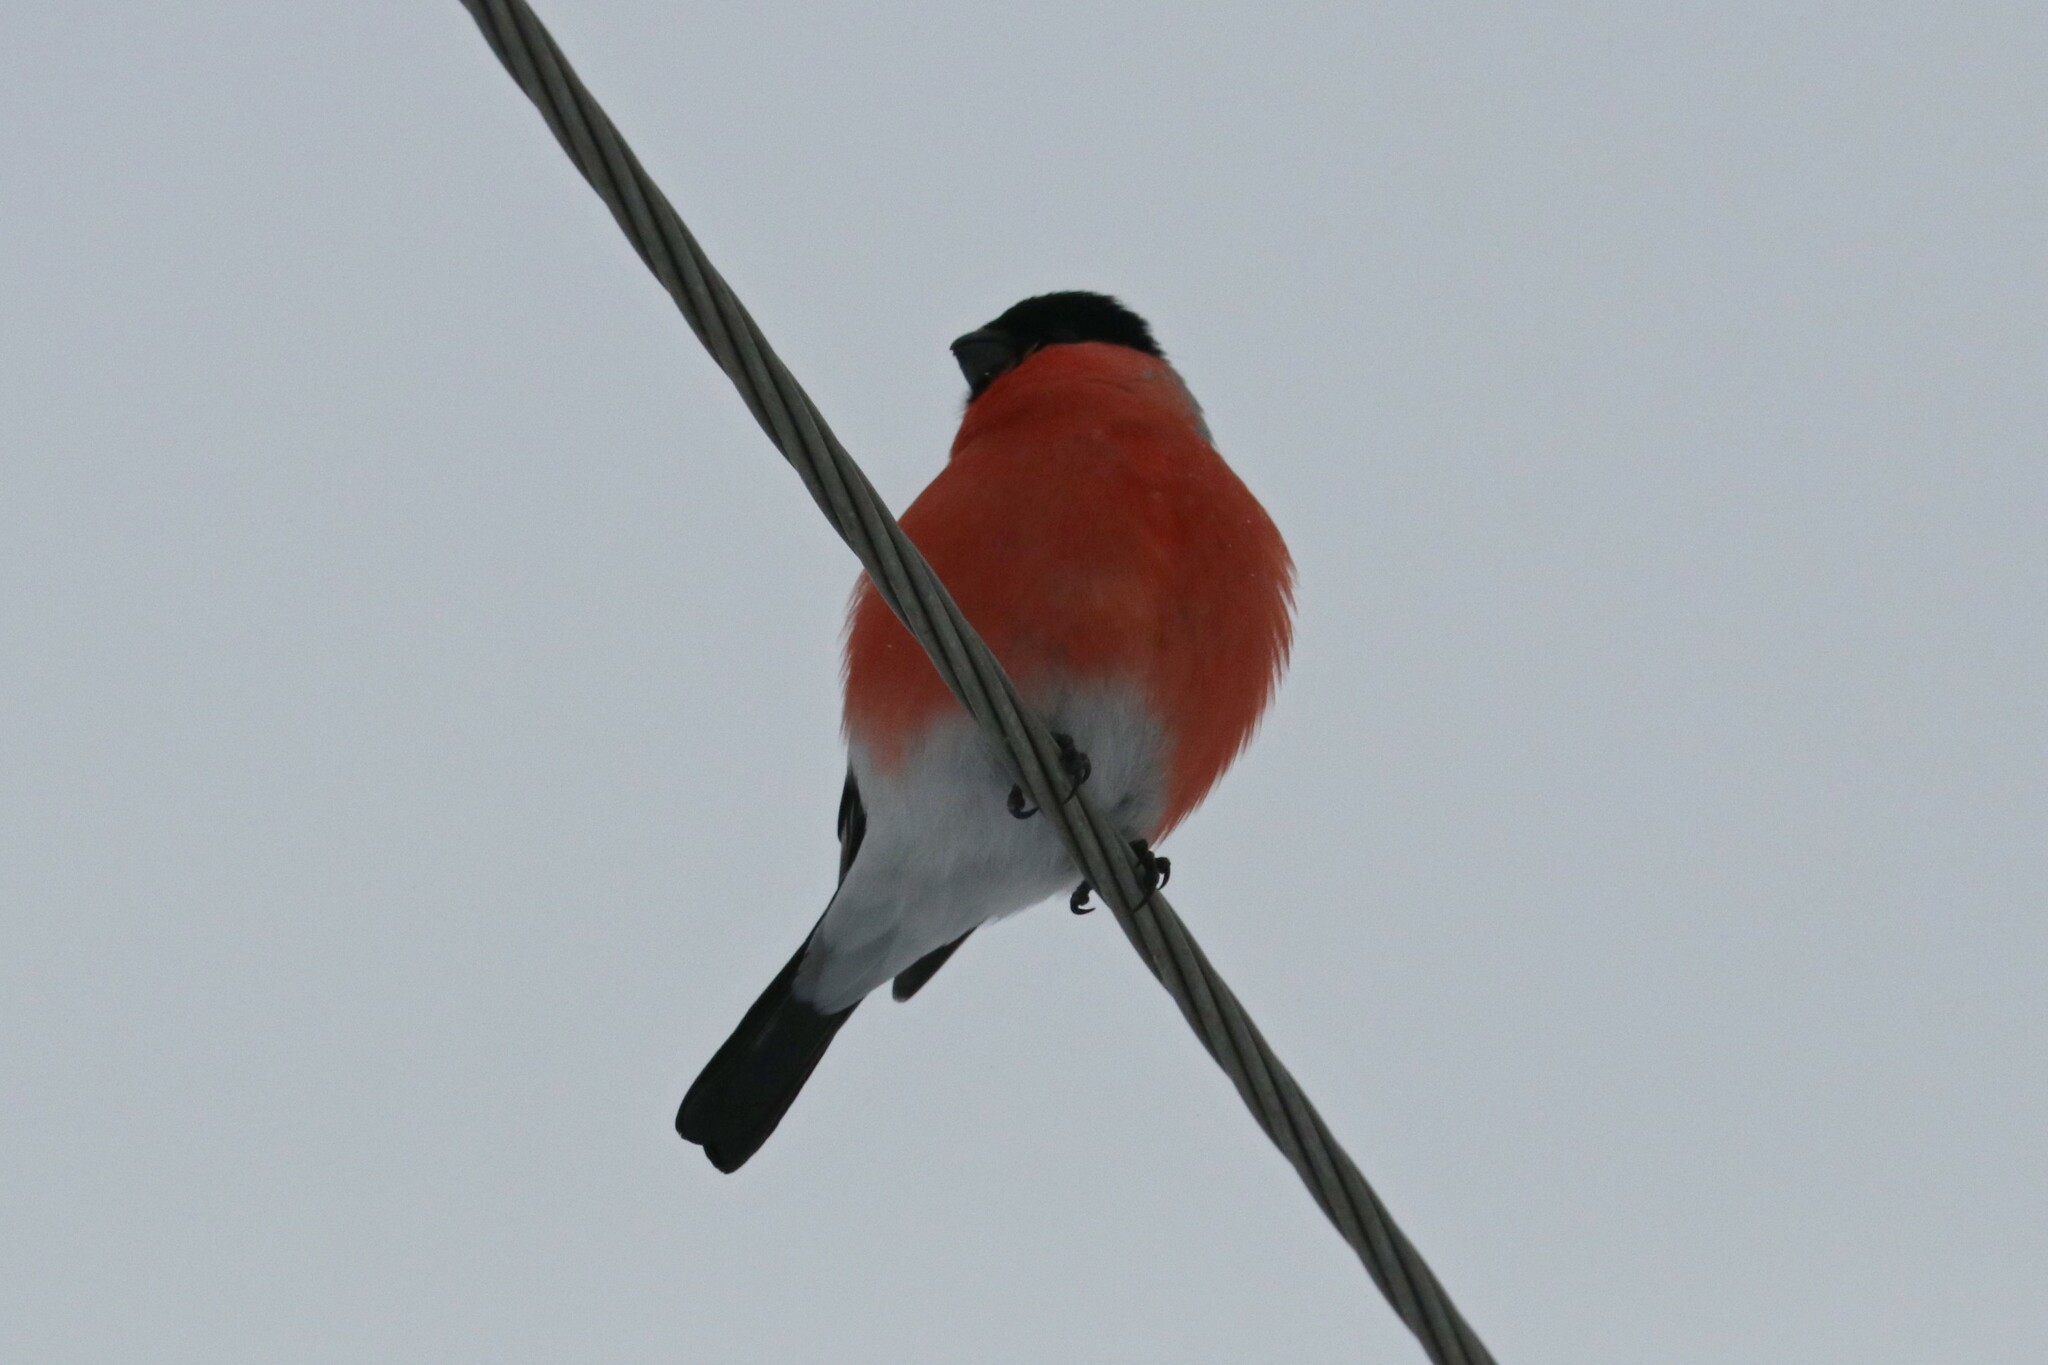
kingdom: Animalia
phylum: Chordata
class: Aves
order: Passeriformes
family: Fringillidae
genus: Pyrrhula
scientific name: Pyrrhula pyrrhula
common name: Eurasian bullfinch
